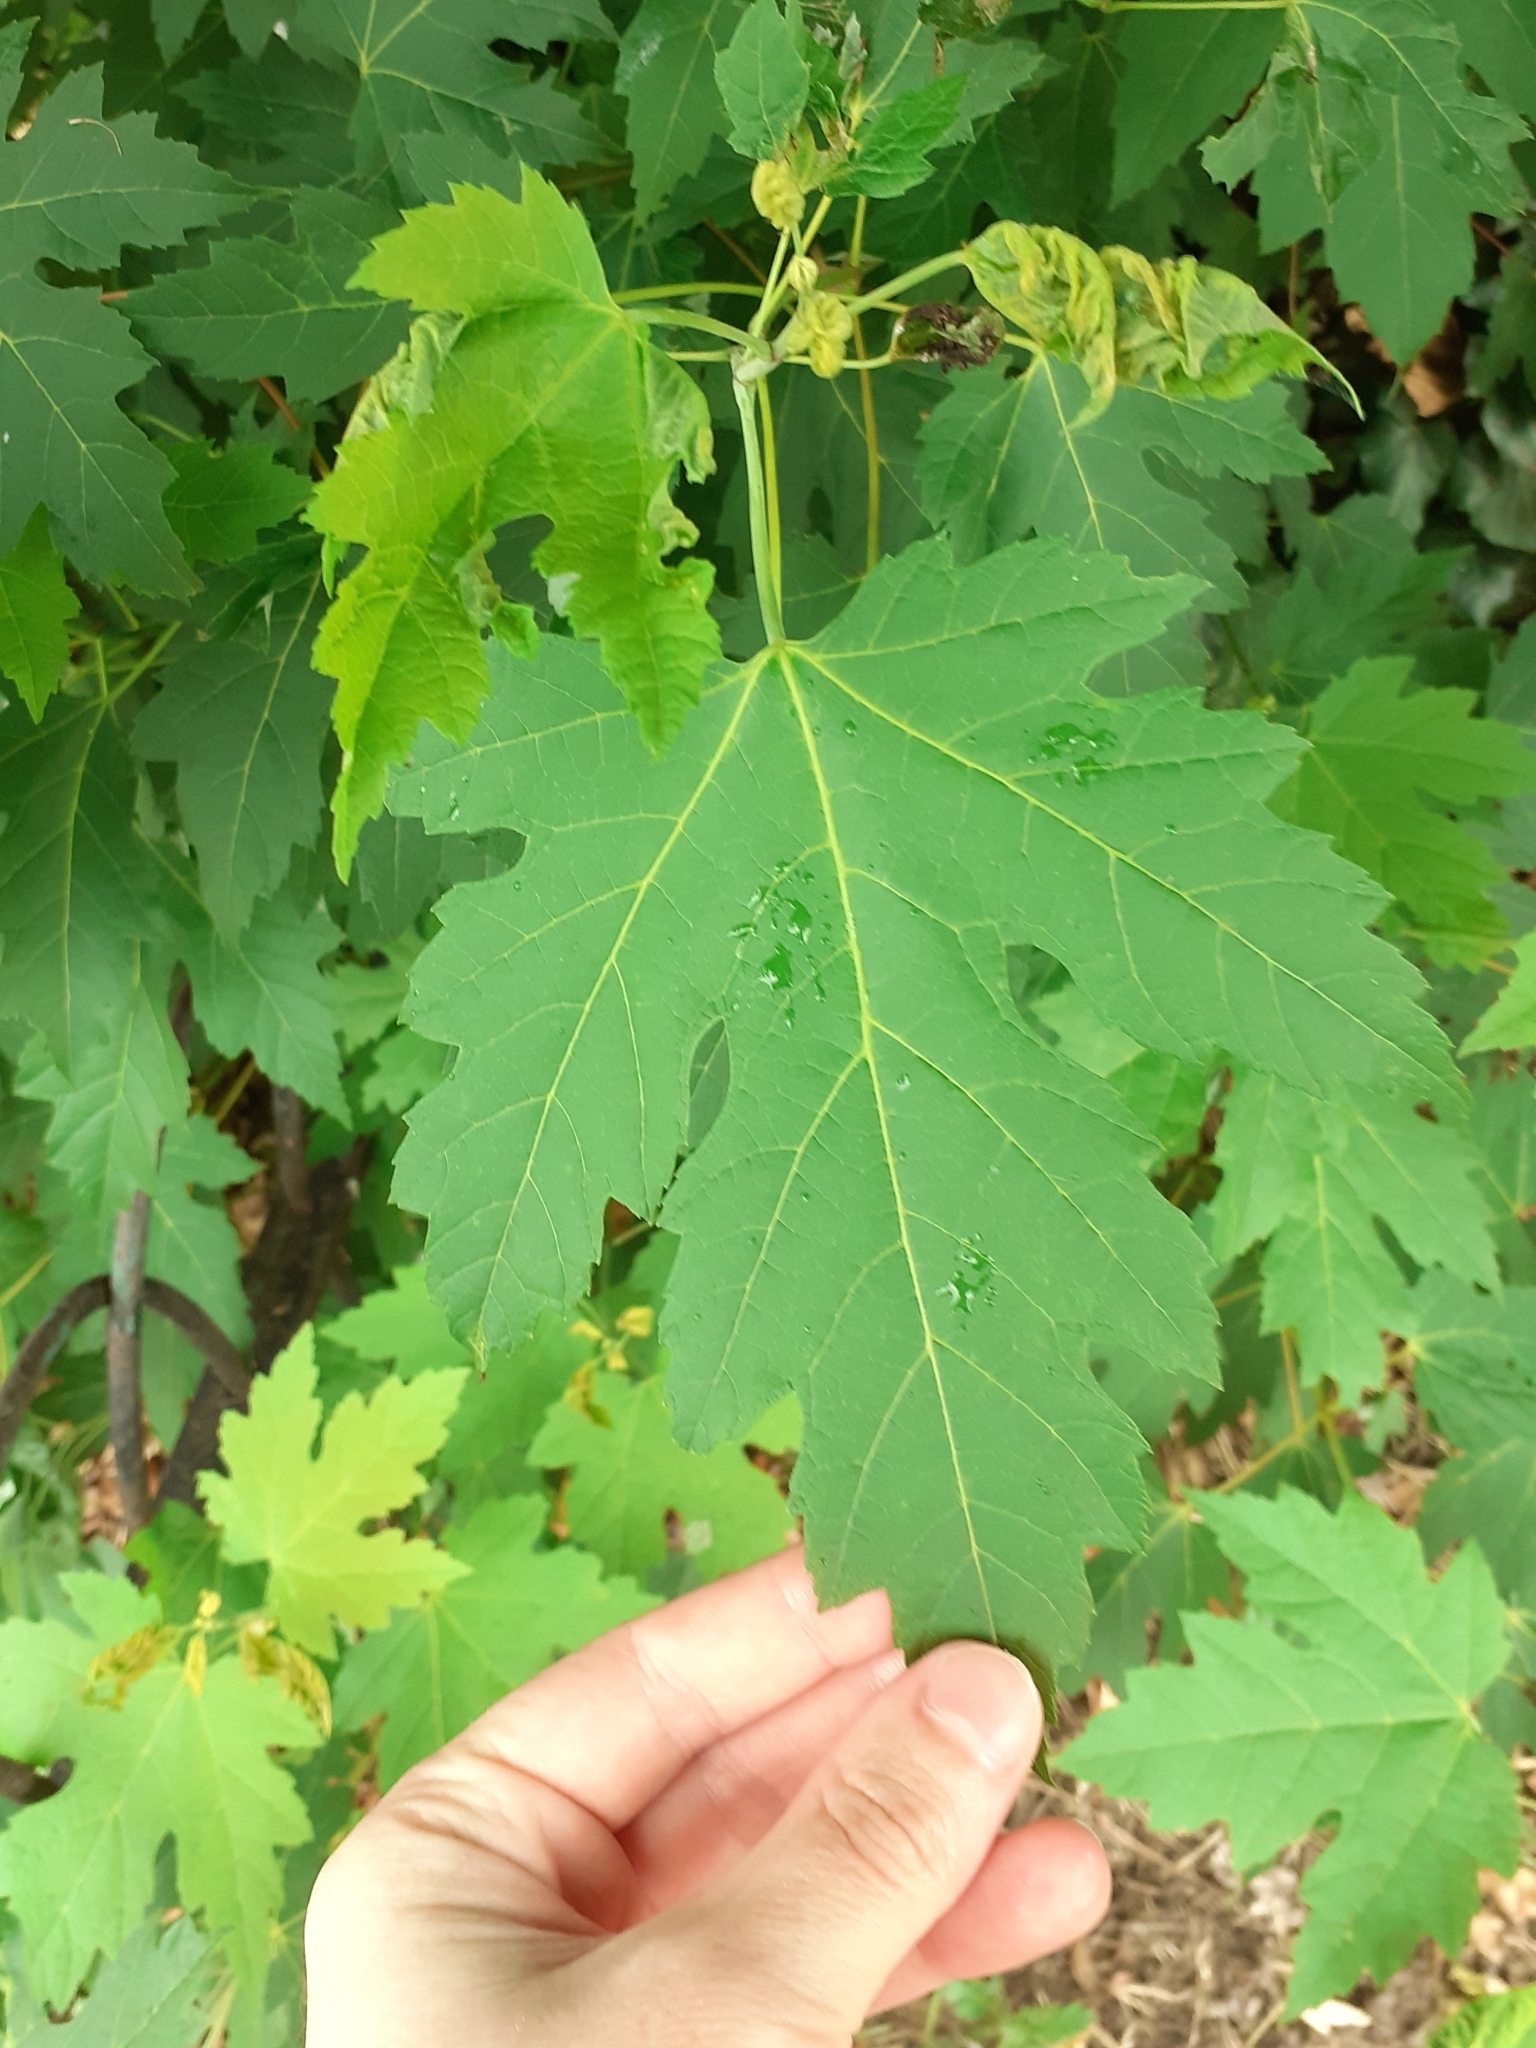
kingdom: Plantae
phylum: Tracheophyta
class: Magnoliopsida
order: Sapindales
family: Sapindaceae
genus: Acer
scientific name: Acer saccharinum
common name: Silver maple
